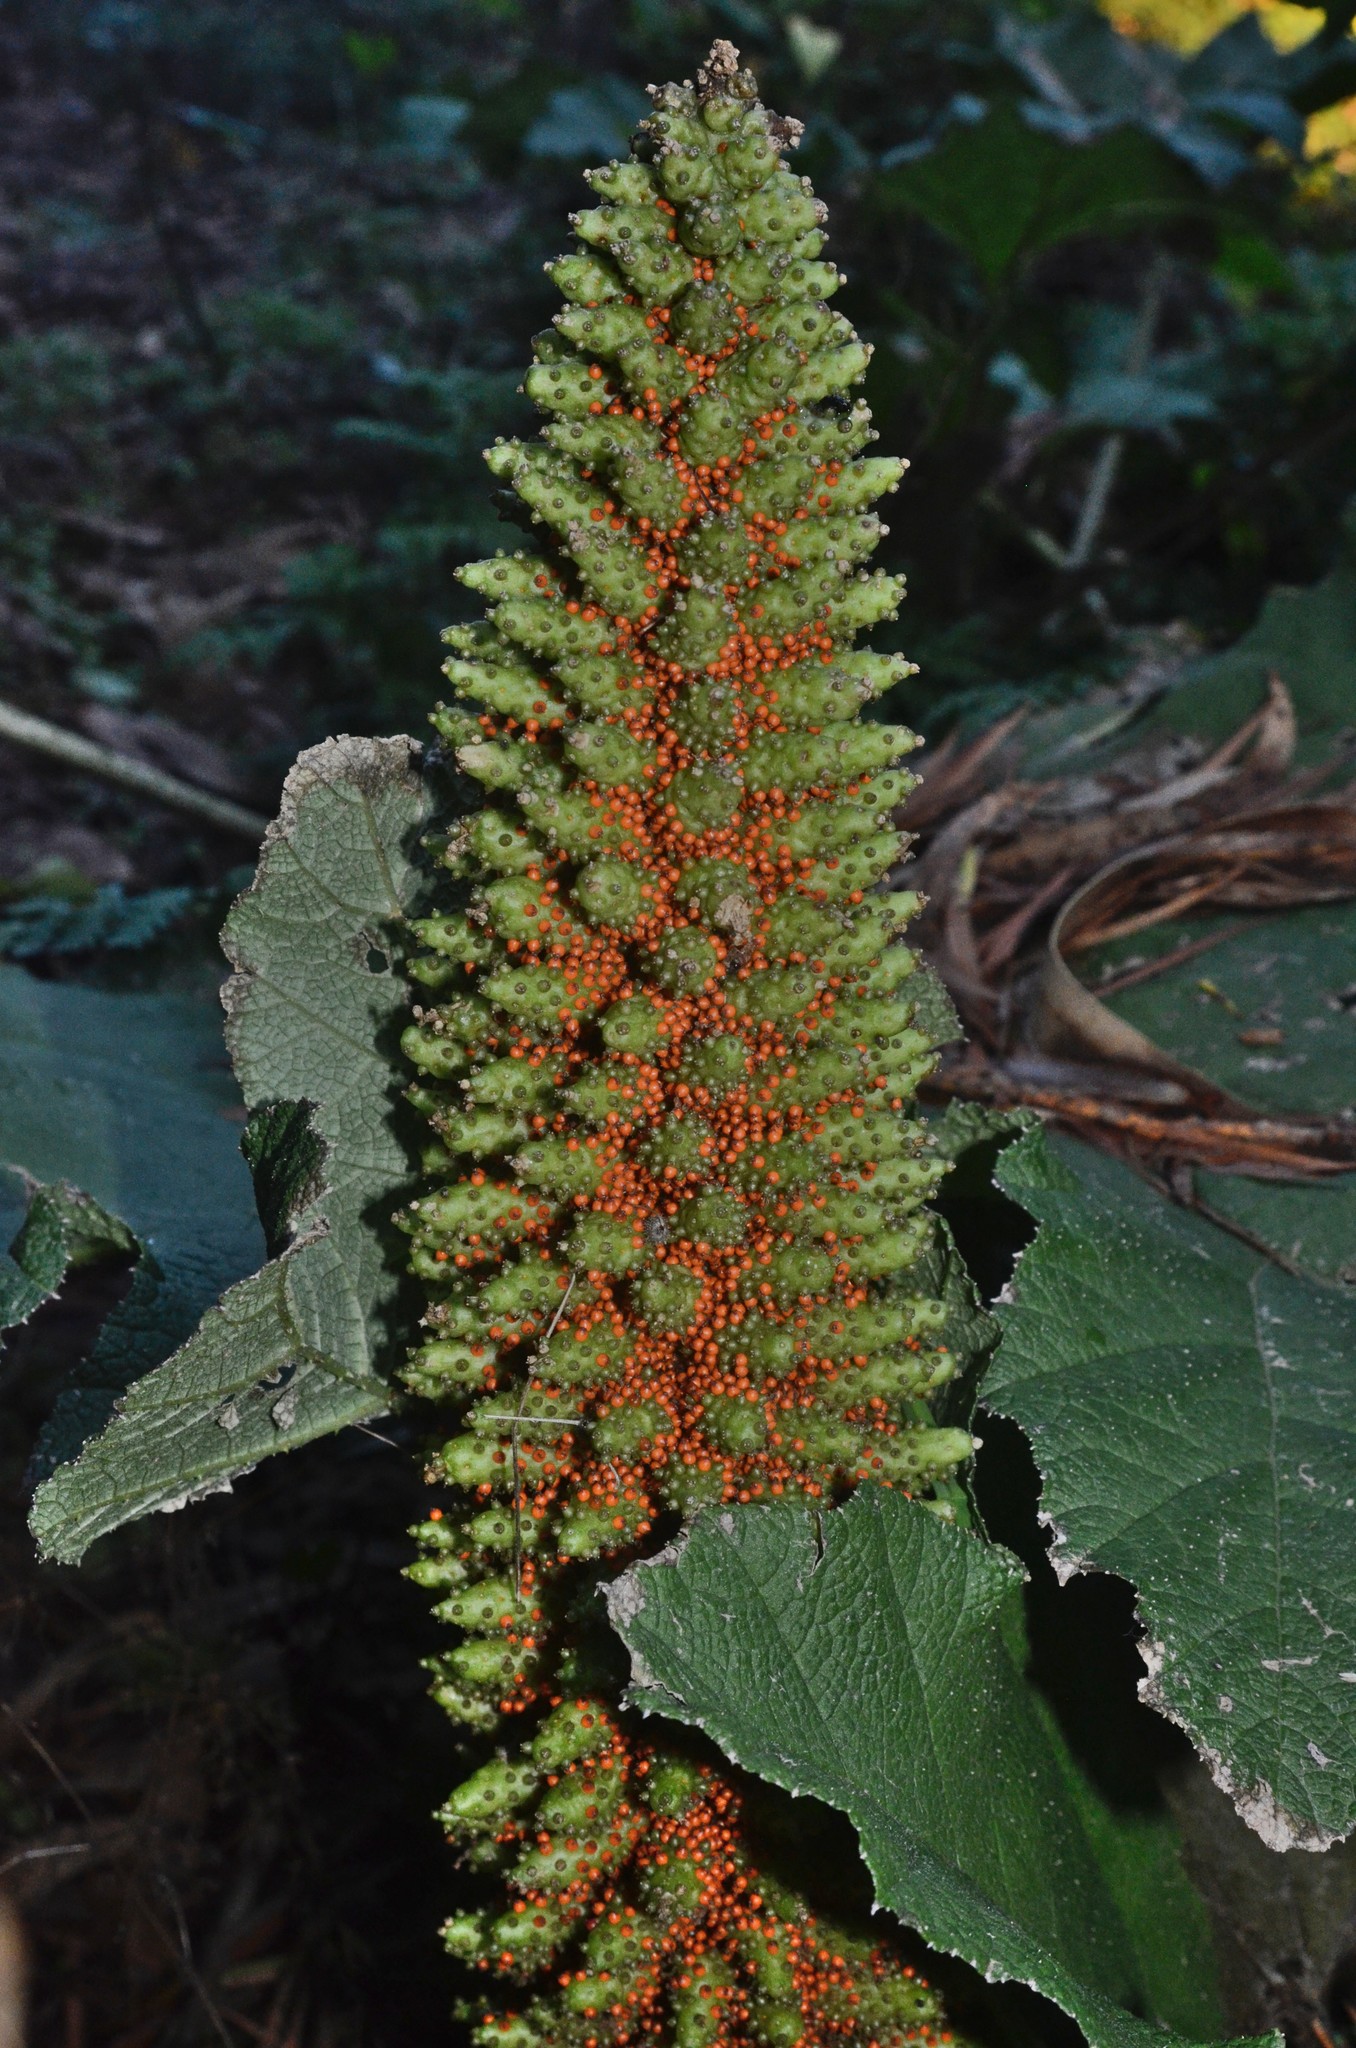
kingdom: Plantae
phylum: Tracheophyta
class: Magnoliopsida
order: Gunnerales
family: Gunneraceae
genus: Gunnera
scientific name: Gunnera tinctoria
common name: Giant-rhubarb
